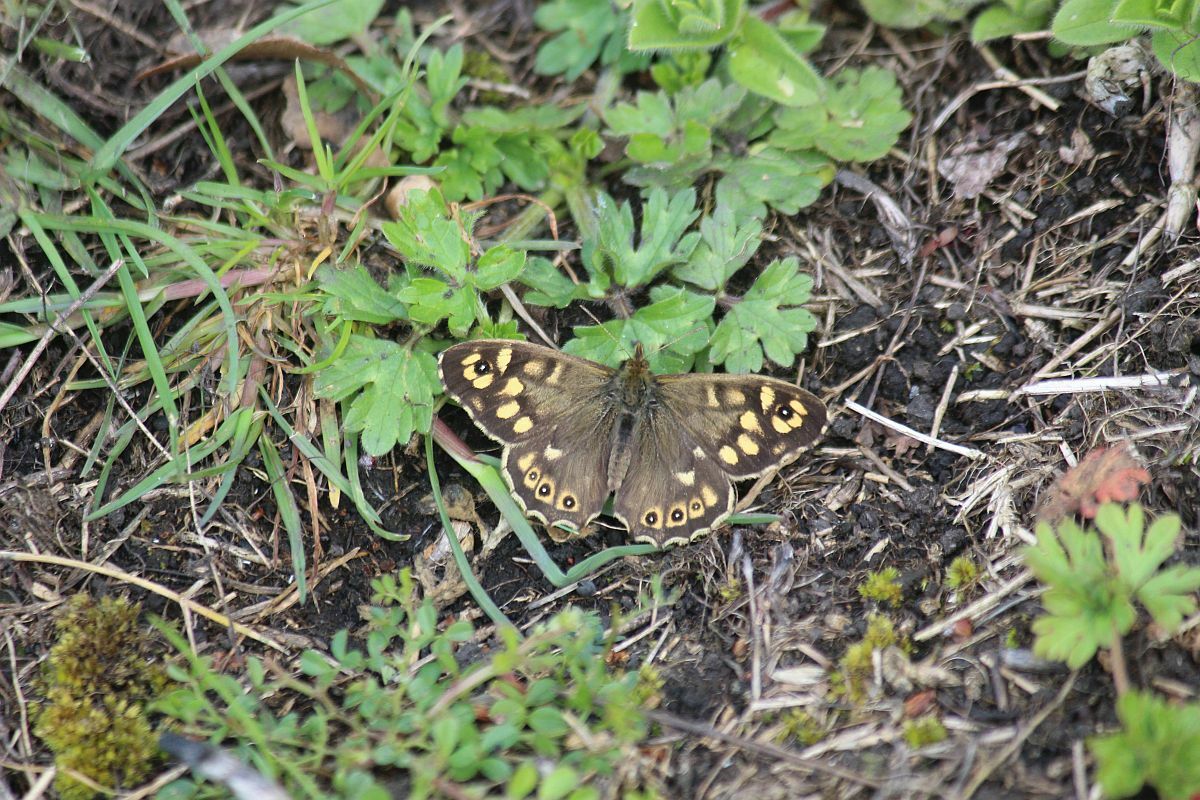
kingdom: Animalia
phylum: Arthropoda
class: Insecta
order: Lepidoptera
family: Nymphalidae
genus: Pararge
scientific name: Pararge aegeria
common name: Speckled wood
